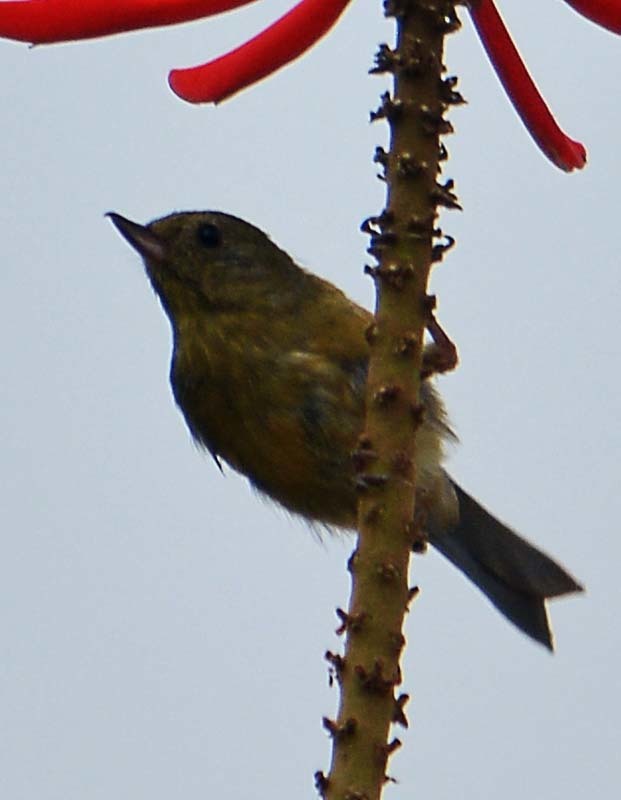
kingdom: Animalia
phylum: Chordata
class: Aves
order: Passeriformes
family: Thraupidae
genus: Diglossa
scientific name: Diglossa baritula
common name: Cinnamon-bellied flowerpiercer
